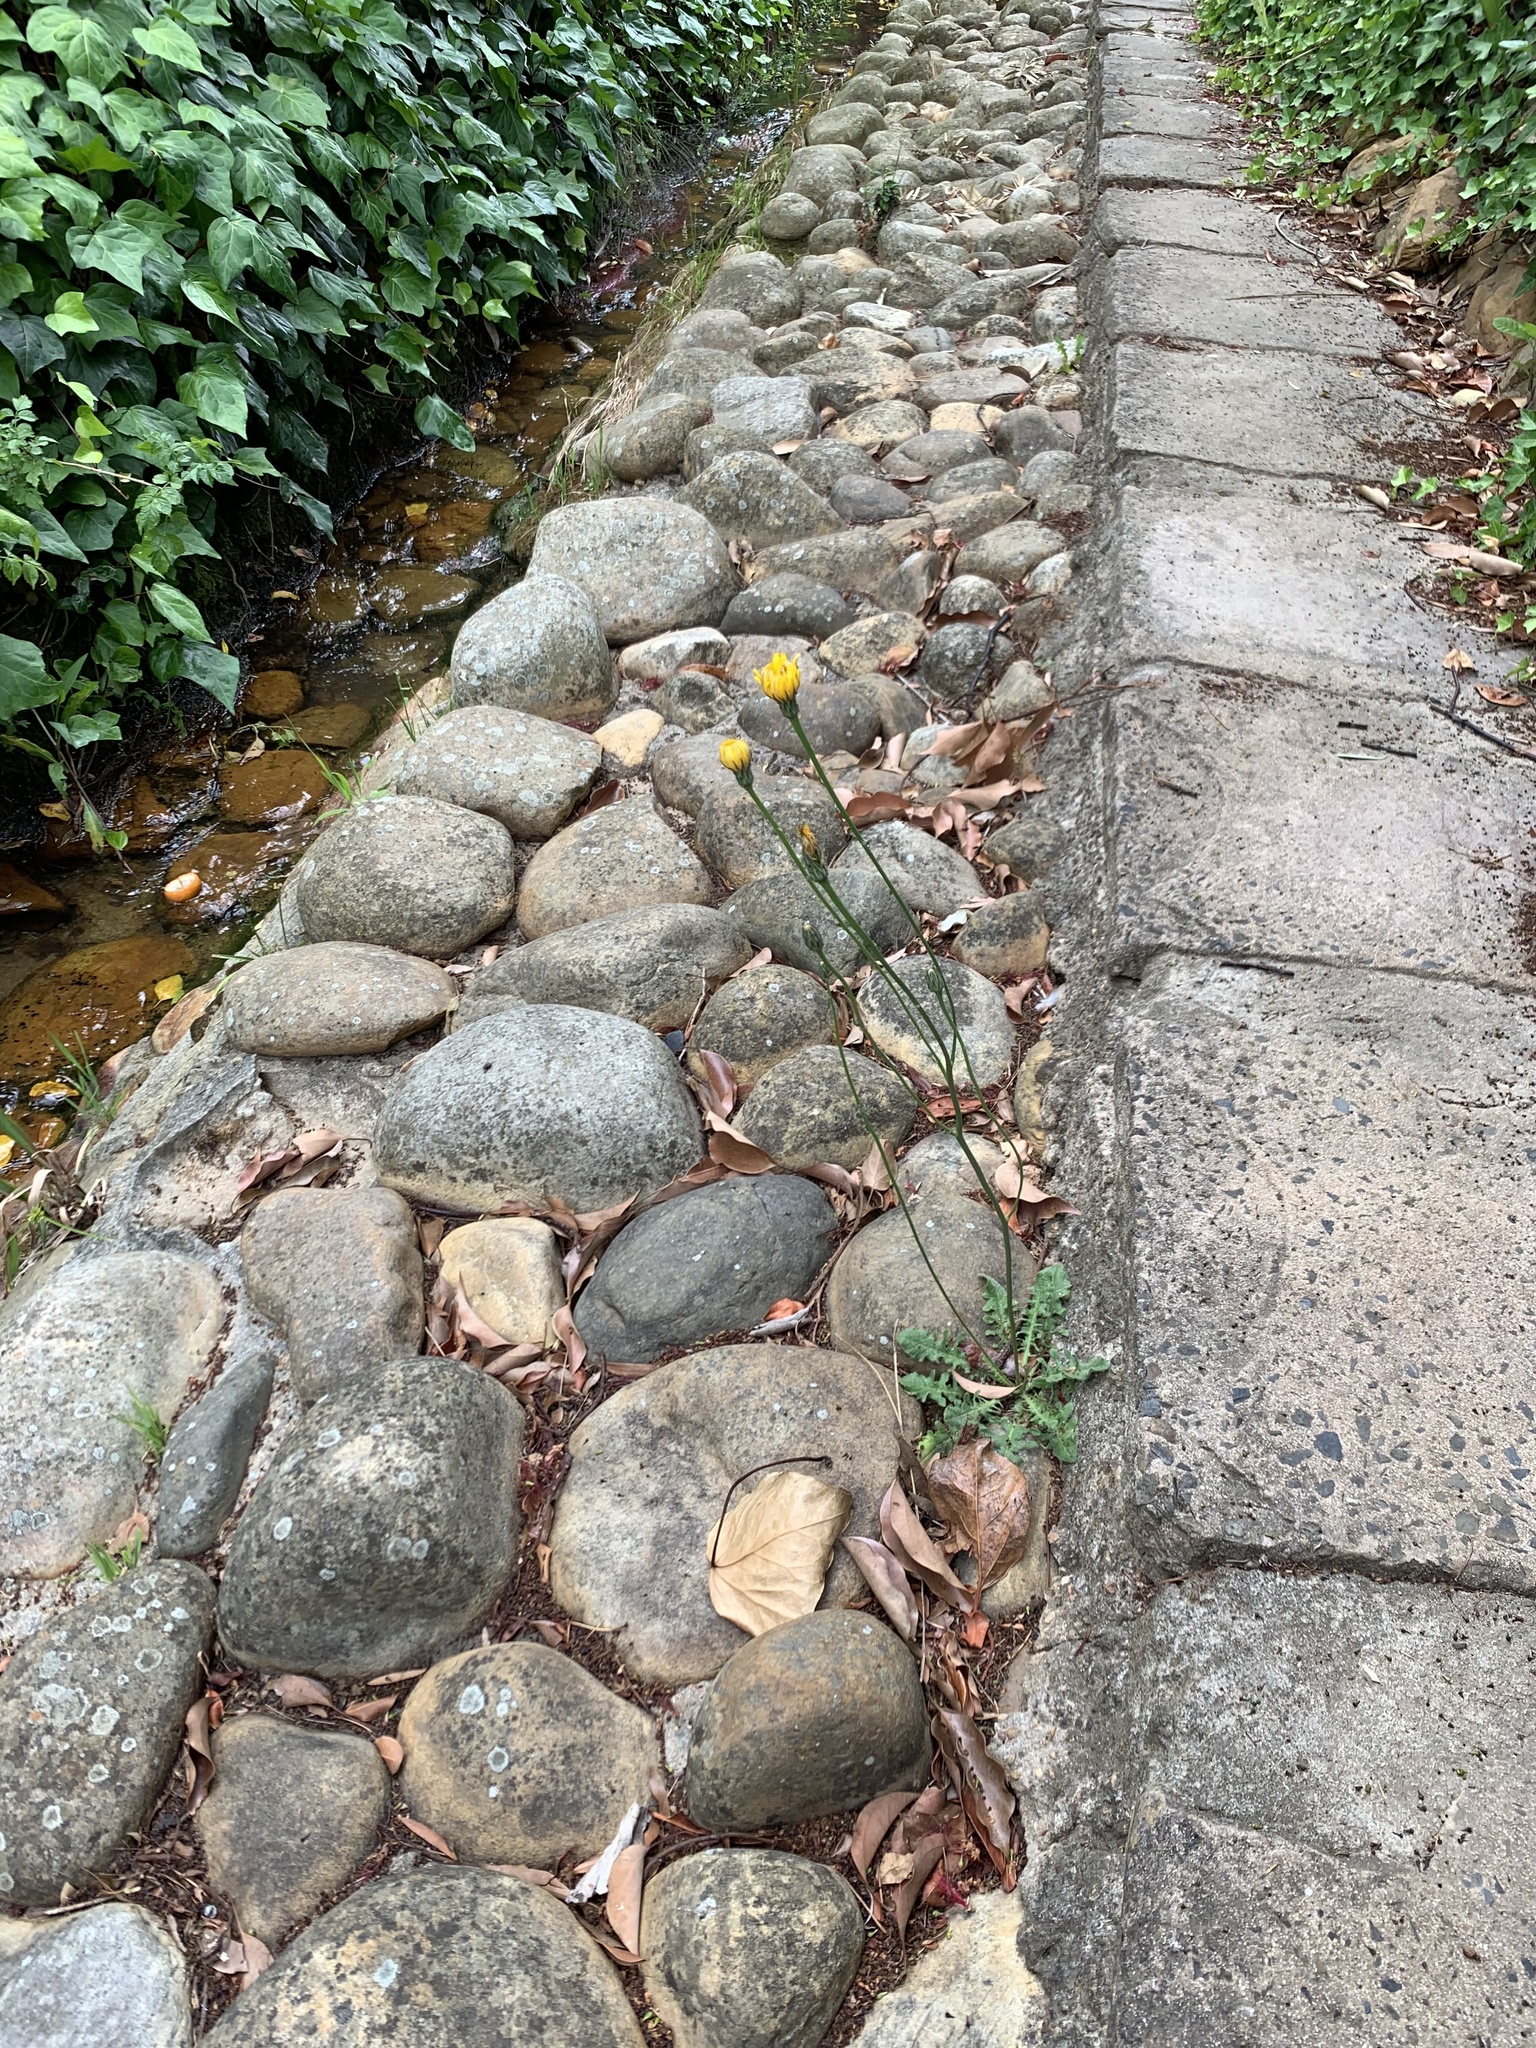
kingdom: Plantae
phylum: Tracheophyta
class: Magnoliopsida
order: Asterales
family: Asteraceae
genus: Hypochaeris
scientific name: Hypochaeris radicata
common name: Flatweed
